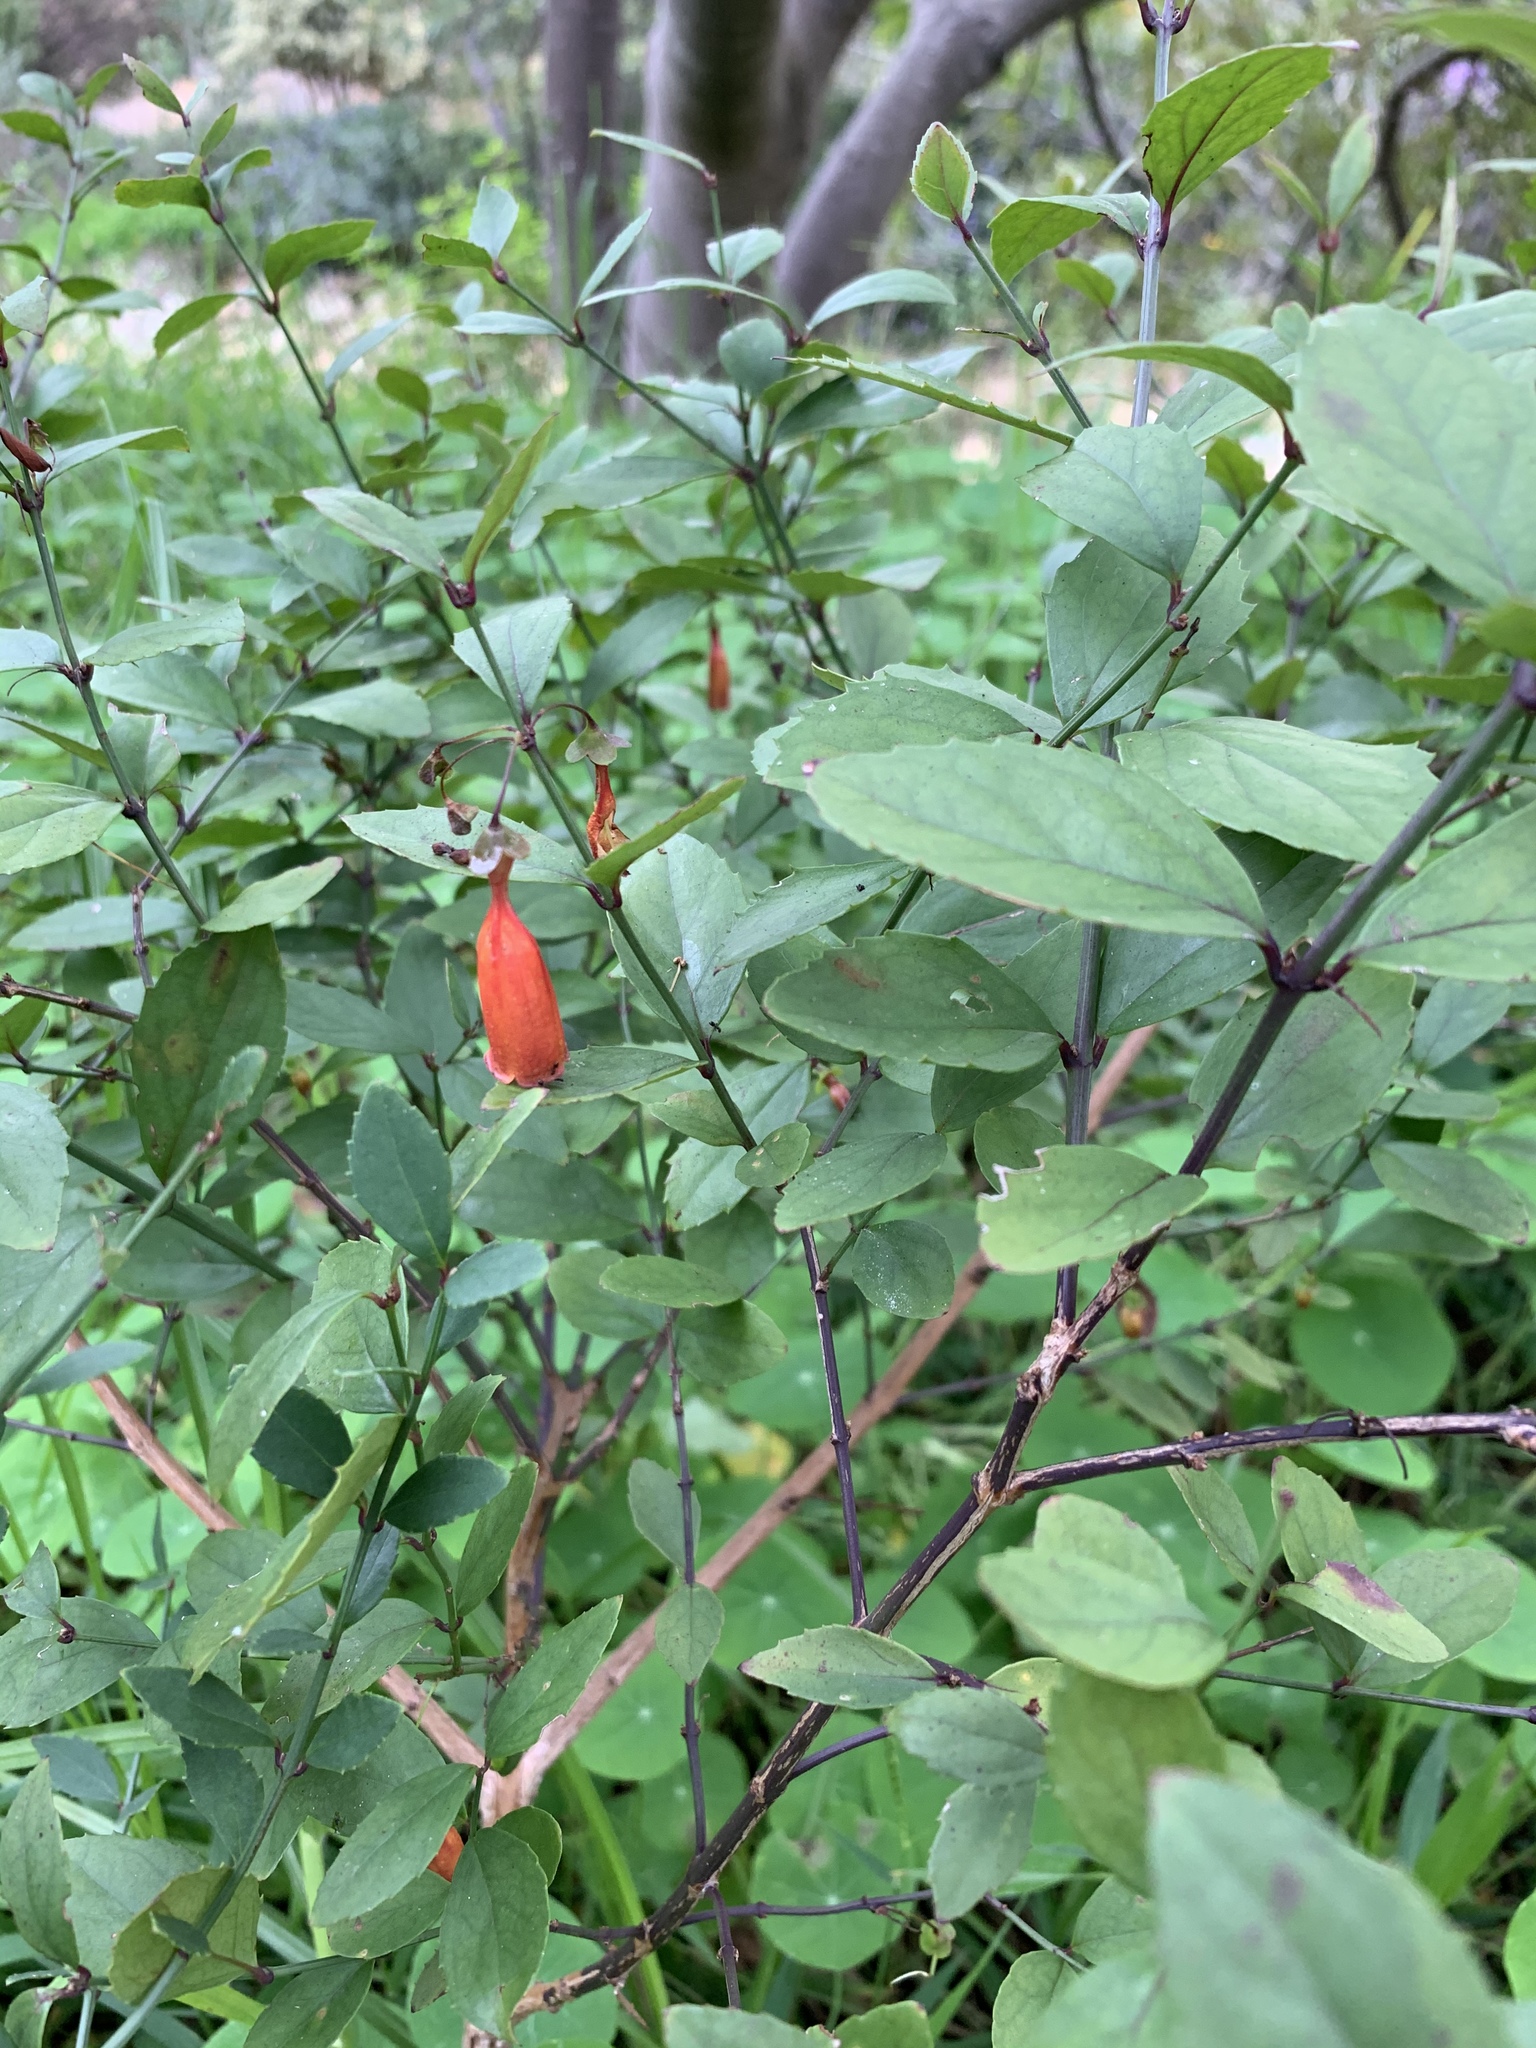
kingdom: Plantae
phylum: Tracheophyta
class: Magnoliopsida
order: Lamiales
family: Stilbaceae
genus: Halleria
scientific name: Halleria elliptica
